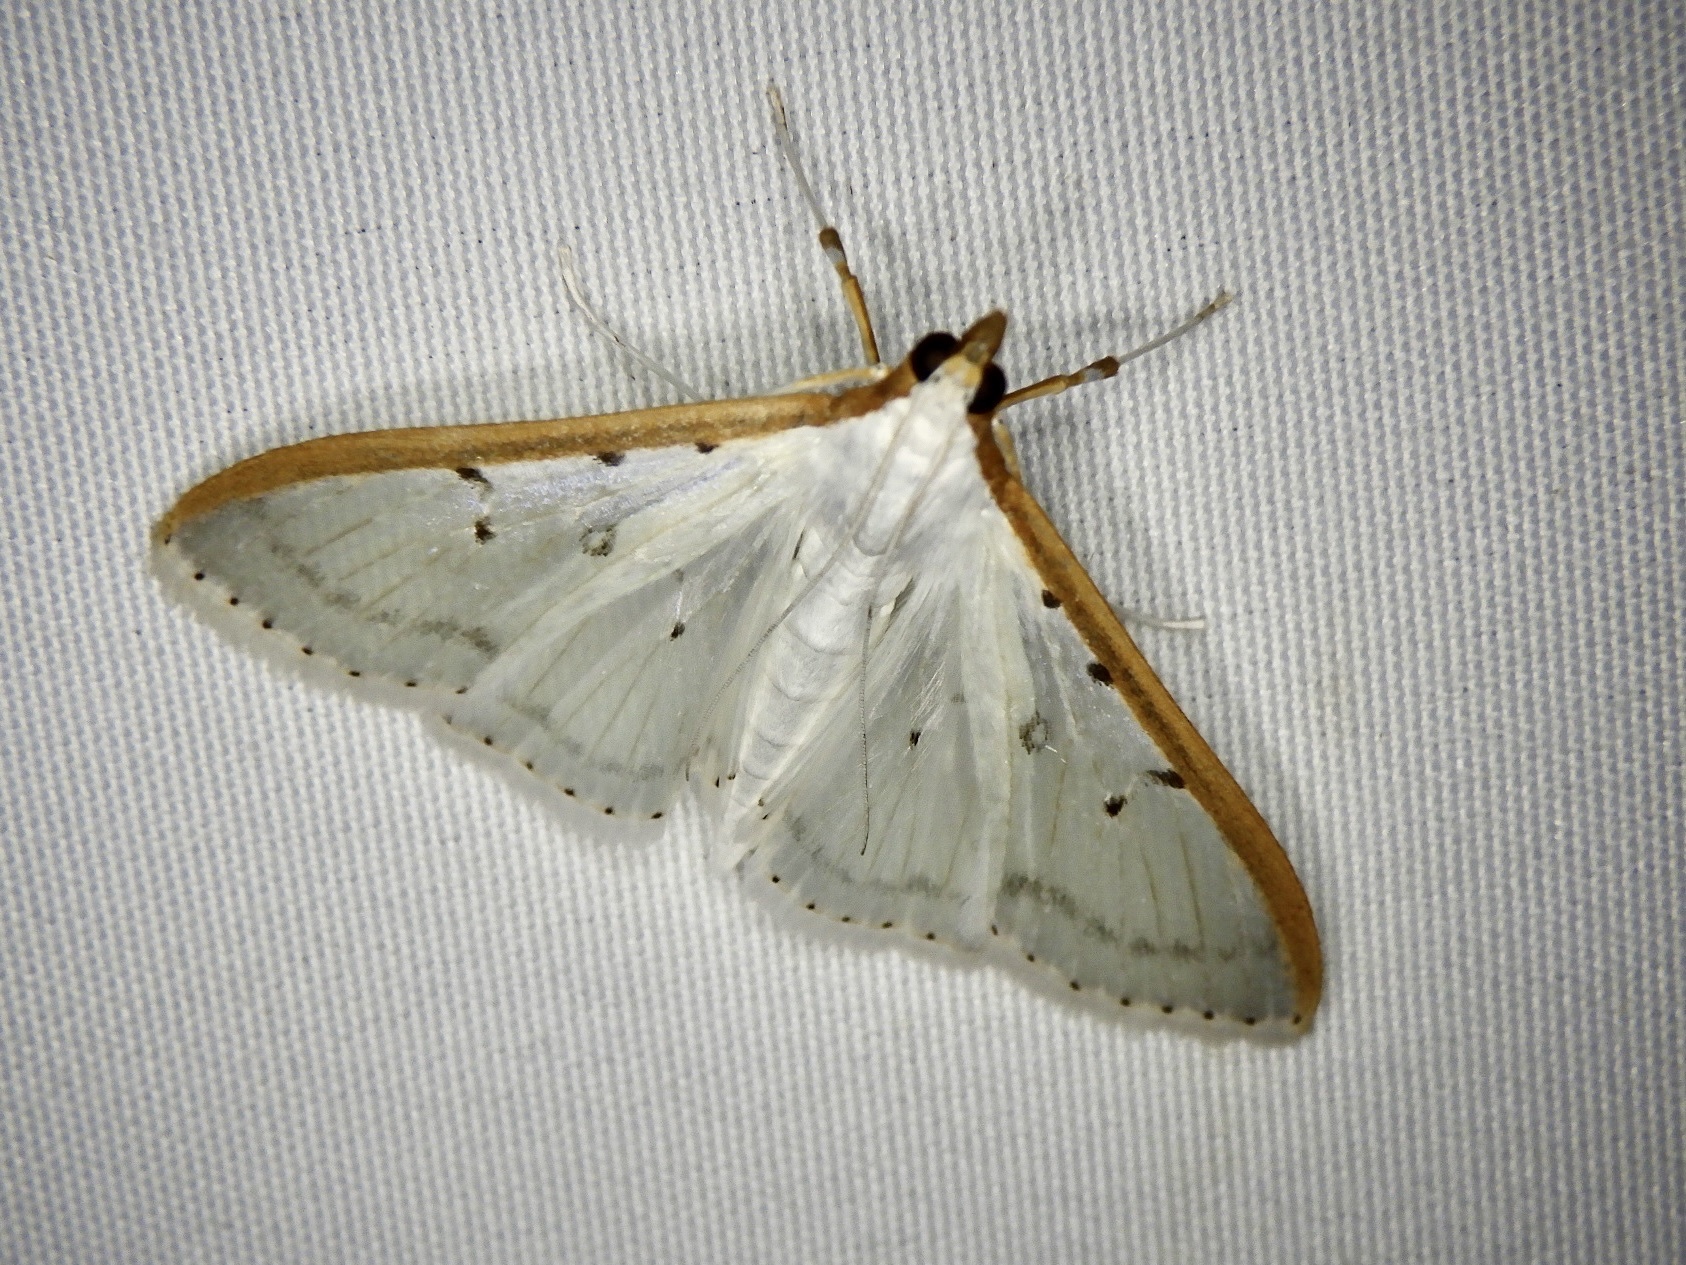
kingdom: Animalia
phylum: Arthropoda
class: Insecta
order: Lepidoptera
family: Crambidae
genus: Palpita
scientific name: Palpita nigropunctalis
